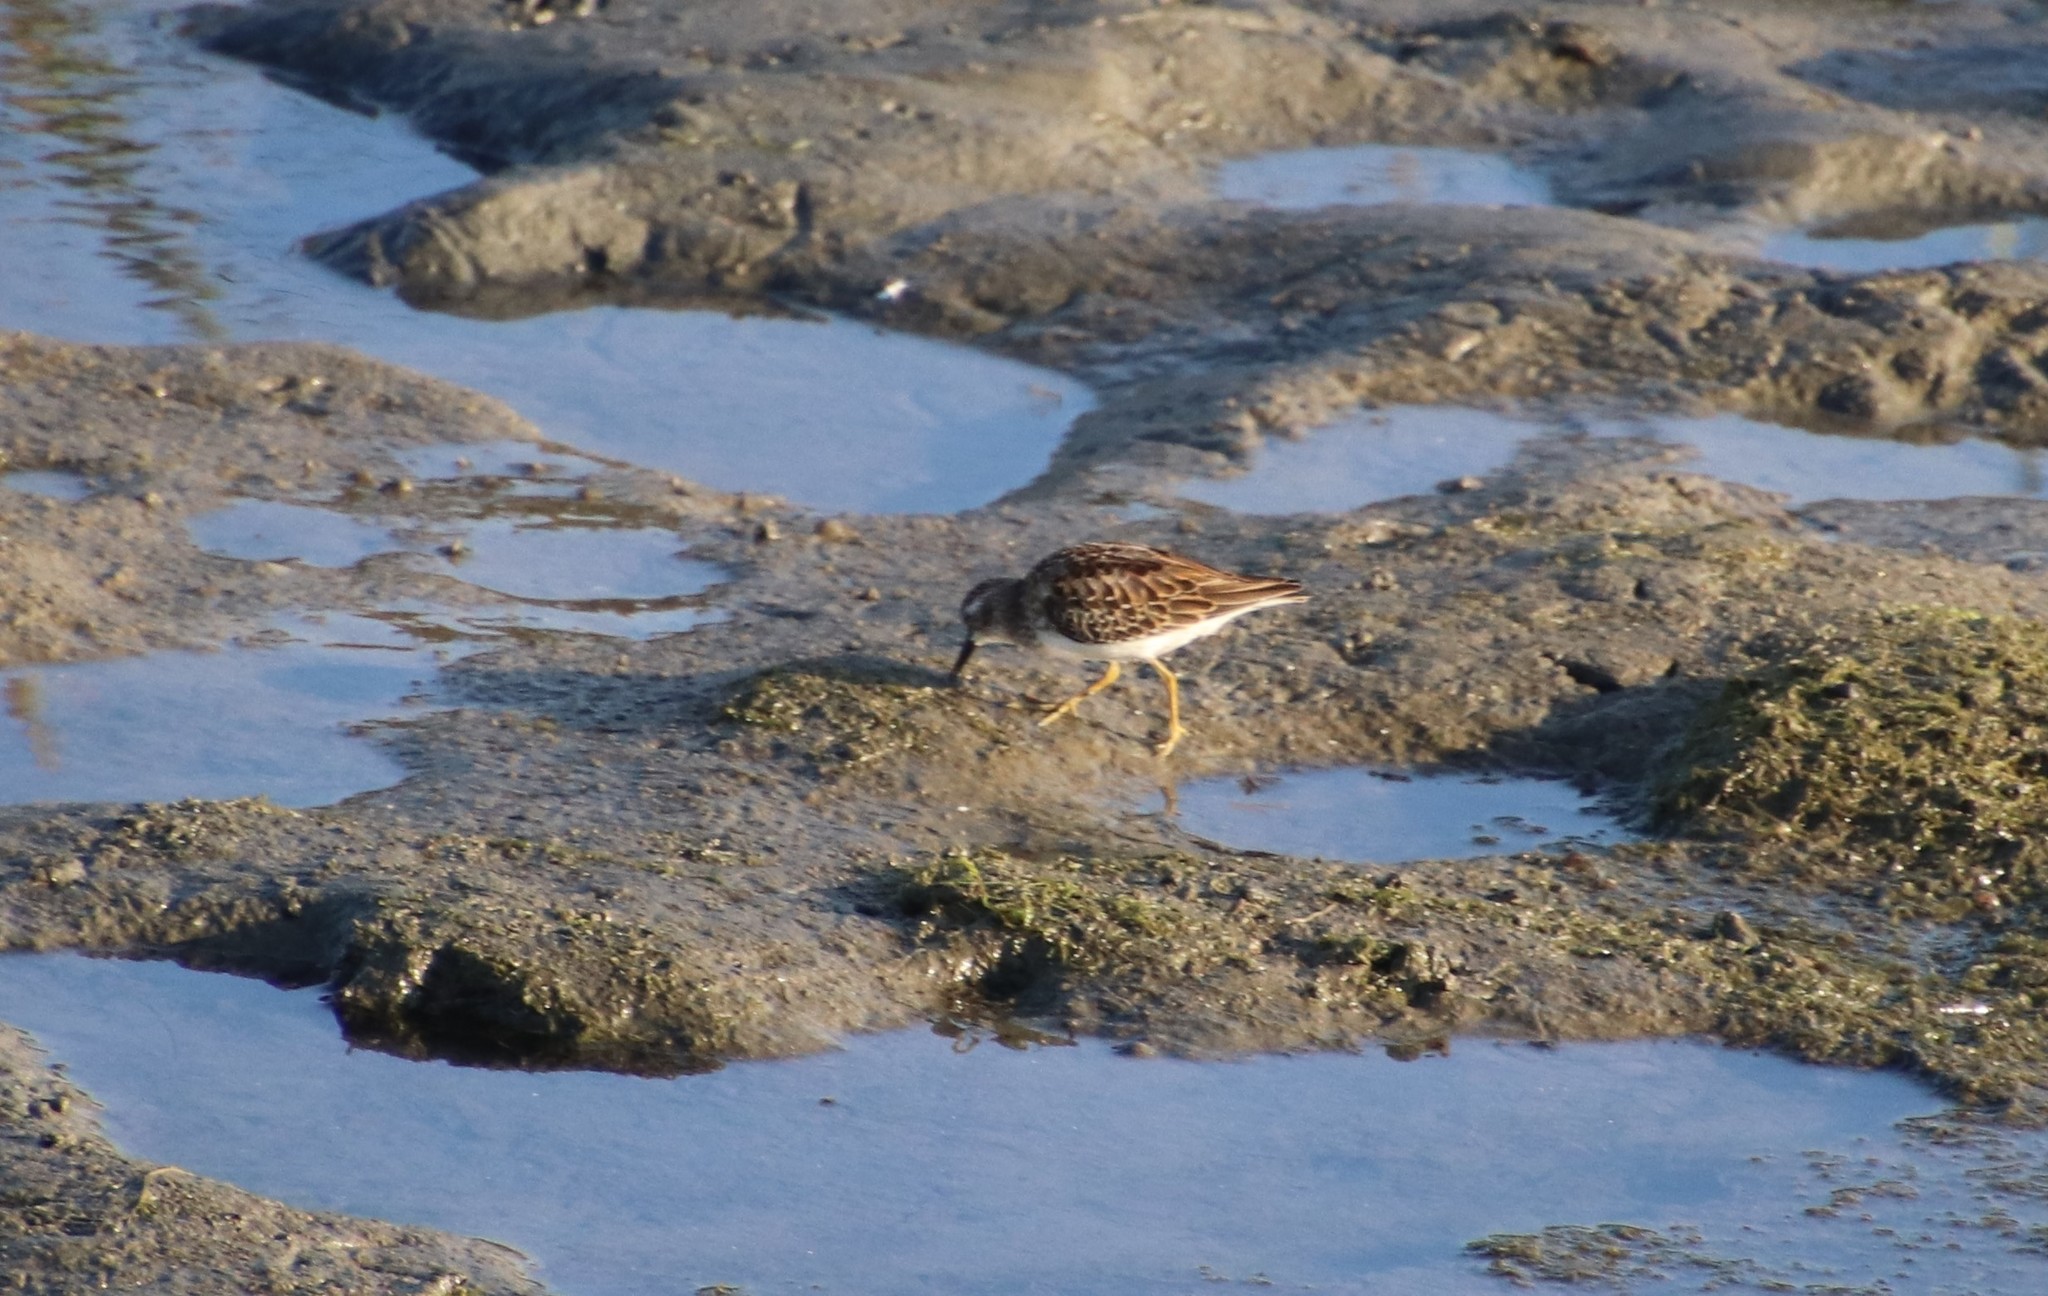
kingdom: Animalia
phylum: Chordata
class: Aves
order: Charadriiformes
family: Scolopacidae
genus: Calidris
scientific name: Calidris minutilla
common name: Least sandpiper
